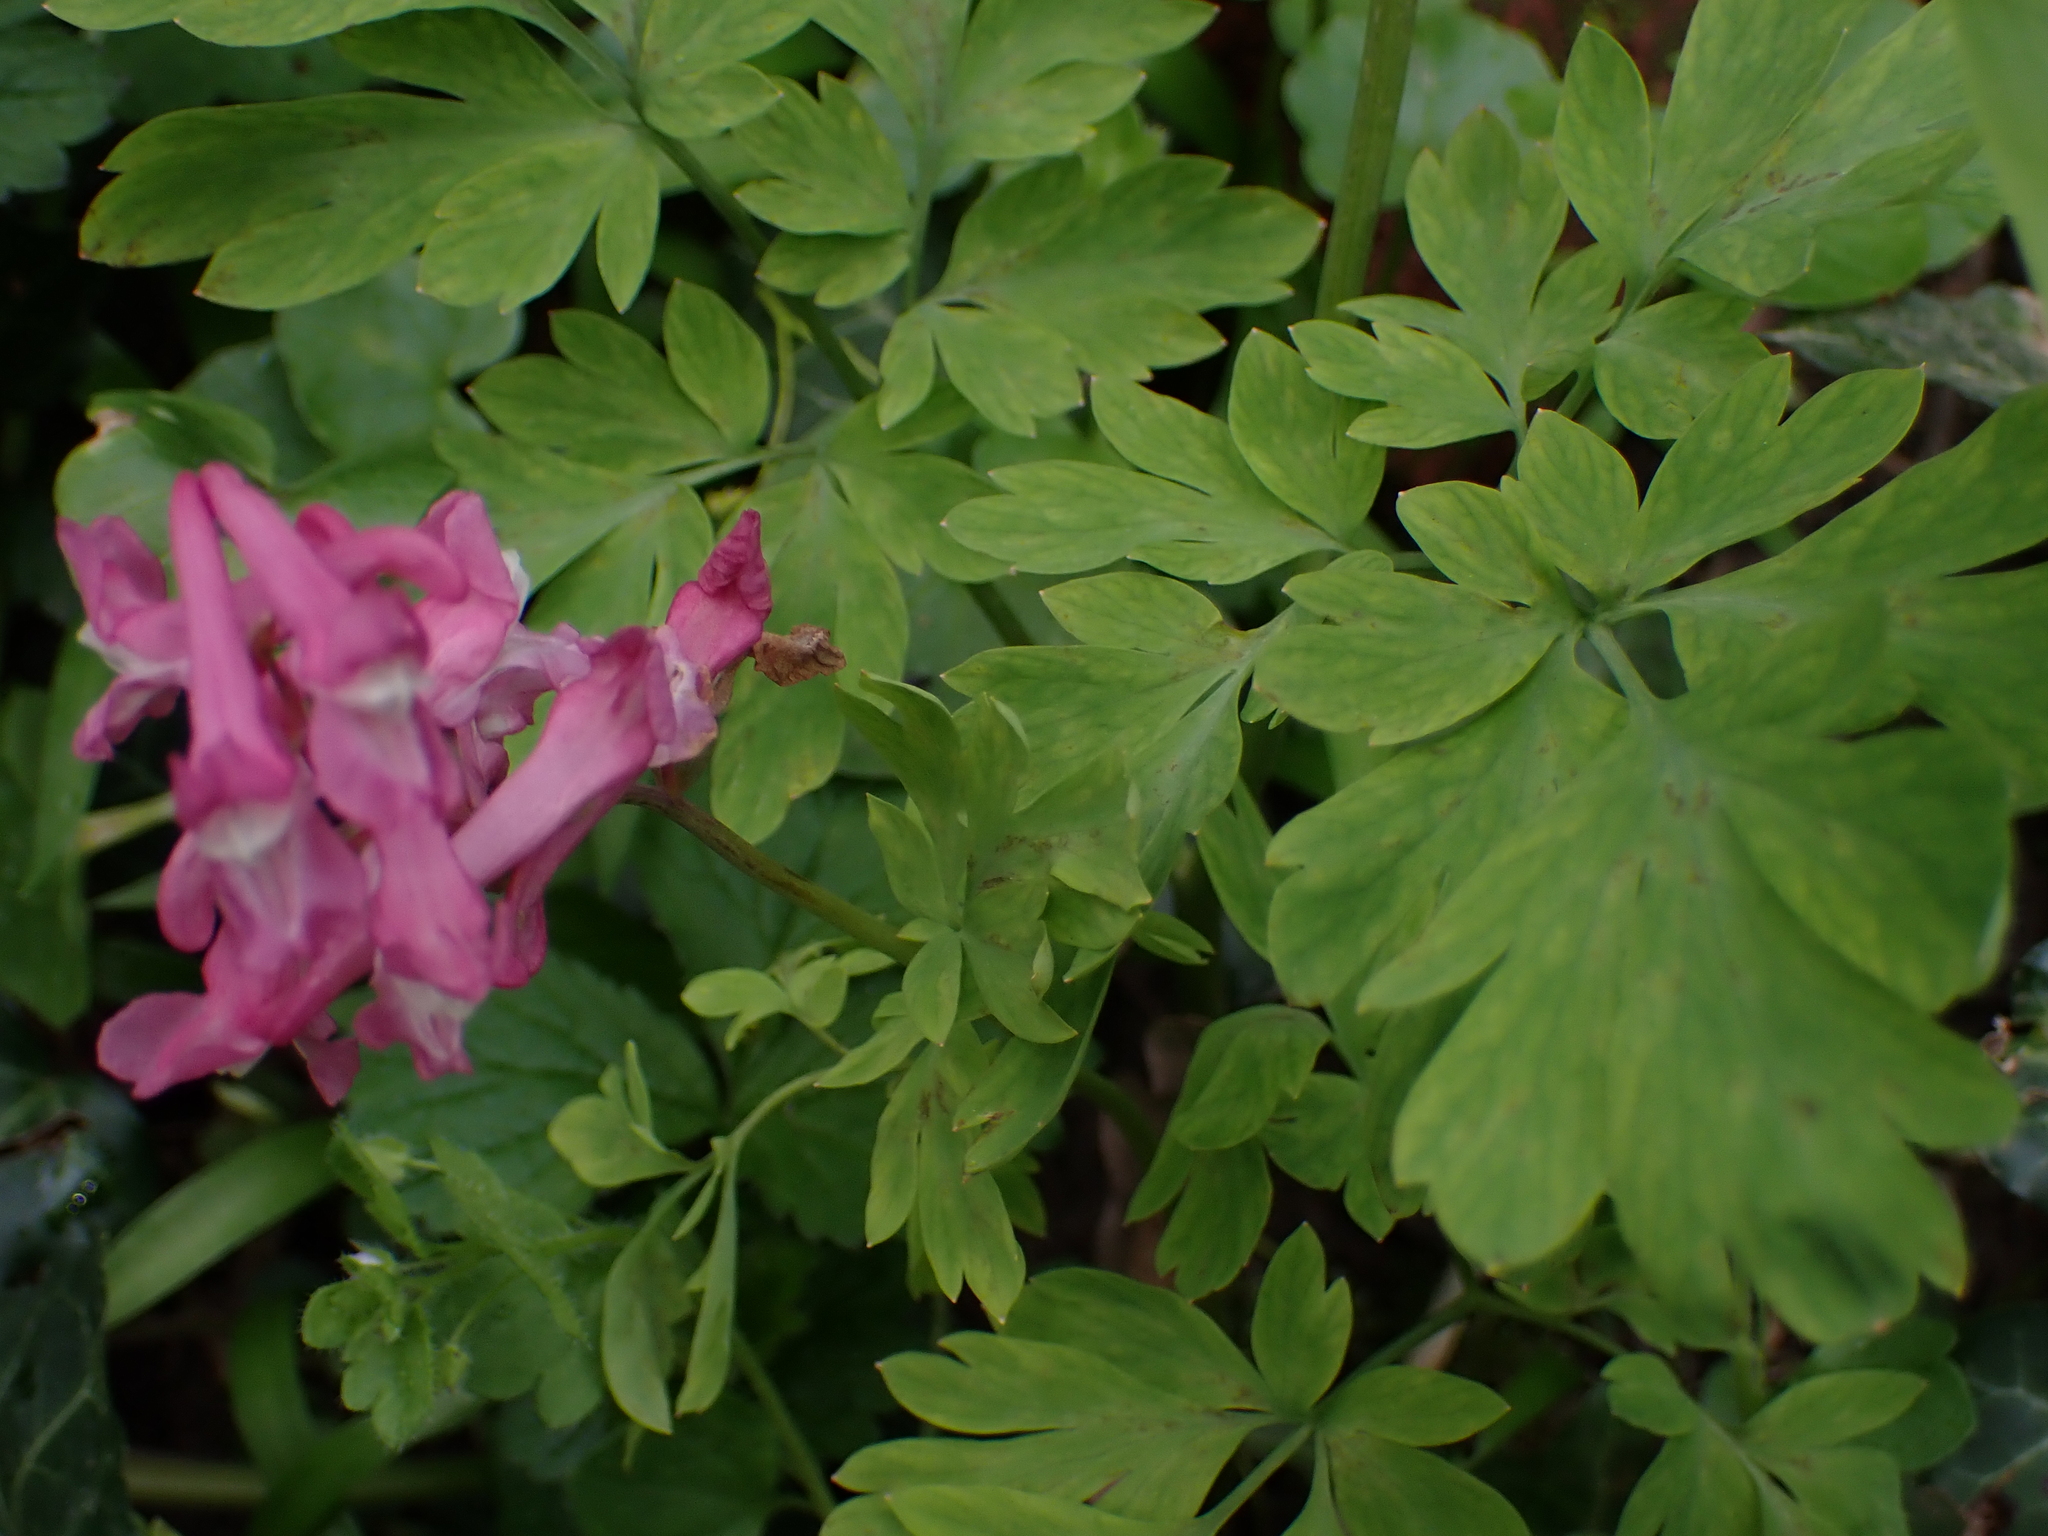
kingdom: Plantae
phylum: Tracheophyta
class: Magnoliopsida
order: Ranunculales
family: Papaveraceae
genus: Corydalis
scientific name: Corydalis cava
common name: Hollowroot
